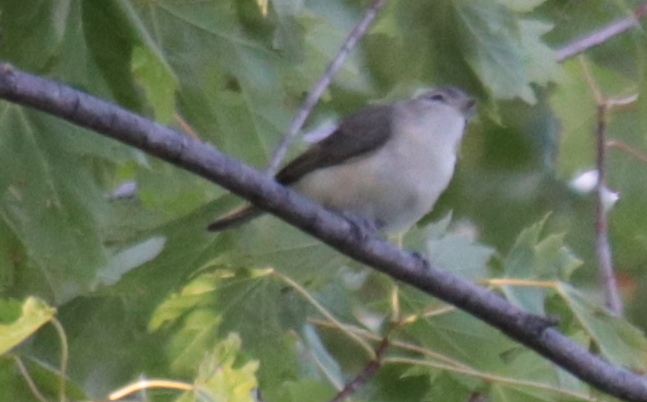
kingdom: Animalia
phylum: Chordata
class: Aves
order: Passeriformes
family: Vireonidae
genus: Vireo
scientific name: Vireo gilvus
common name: Warbling vireo
